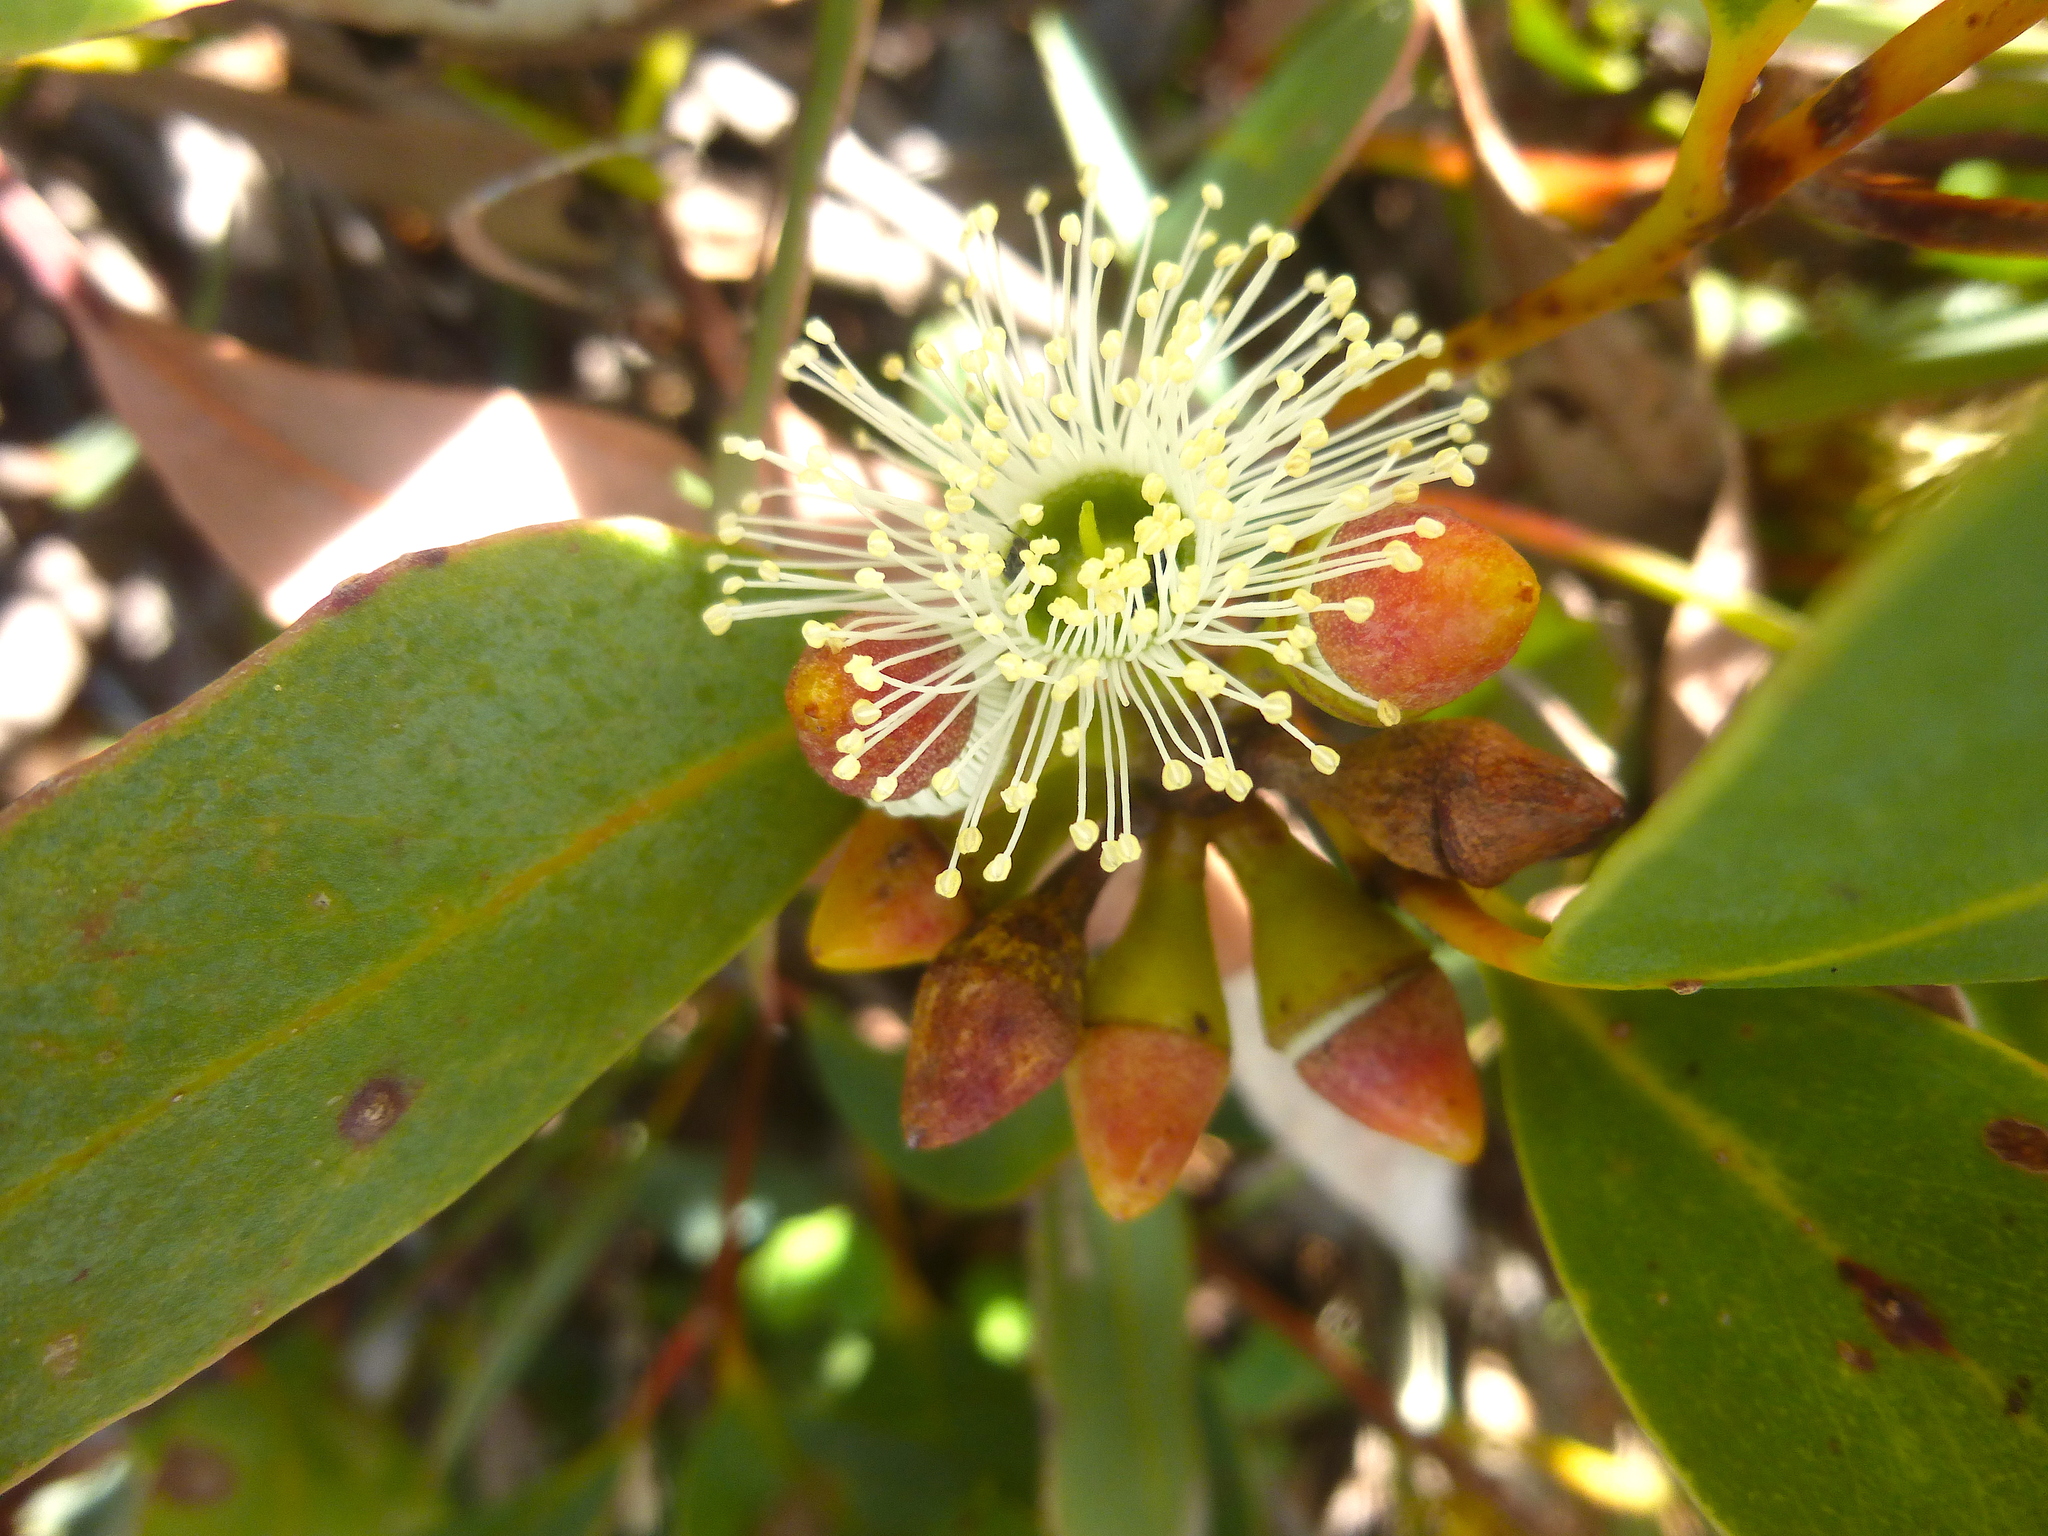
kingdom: Plantae
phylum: Tracheophyta
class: Magnoliopsida
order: Myrtales
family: Myrtaceae
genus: Eucalyptus
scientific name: Eucalyptus diversifolia
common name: Coastal white mallee
